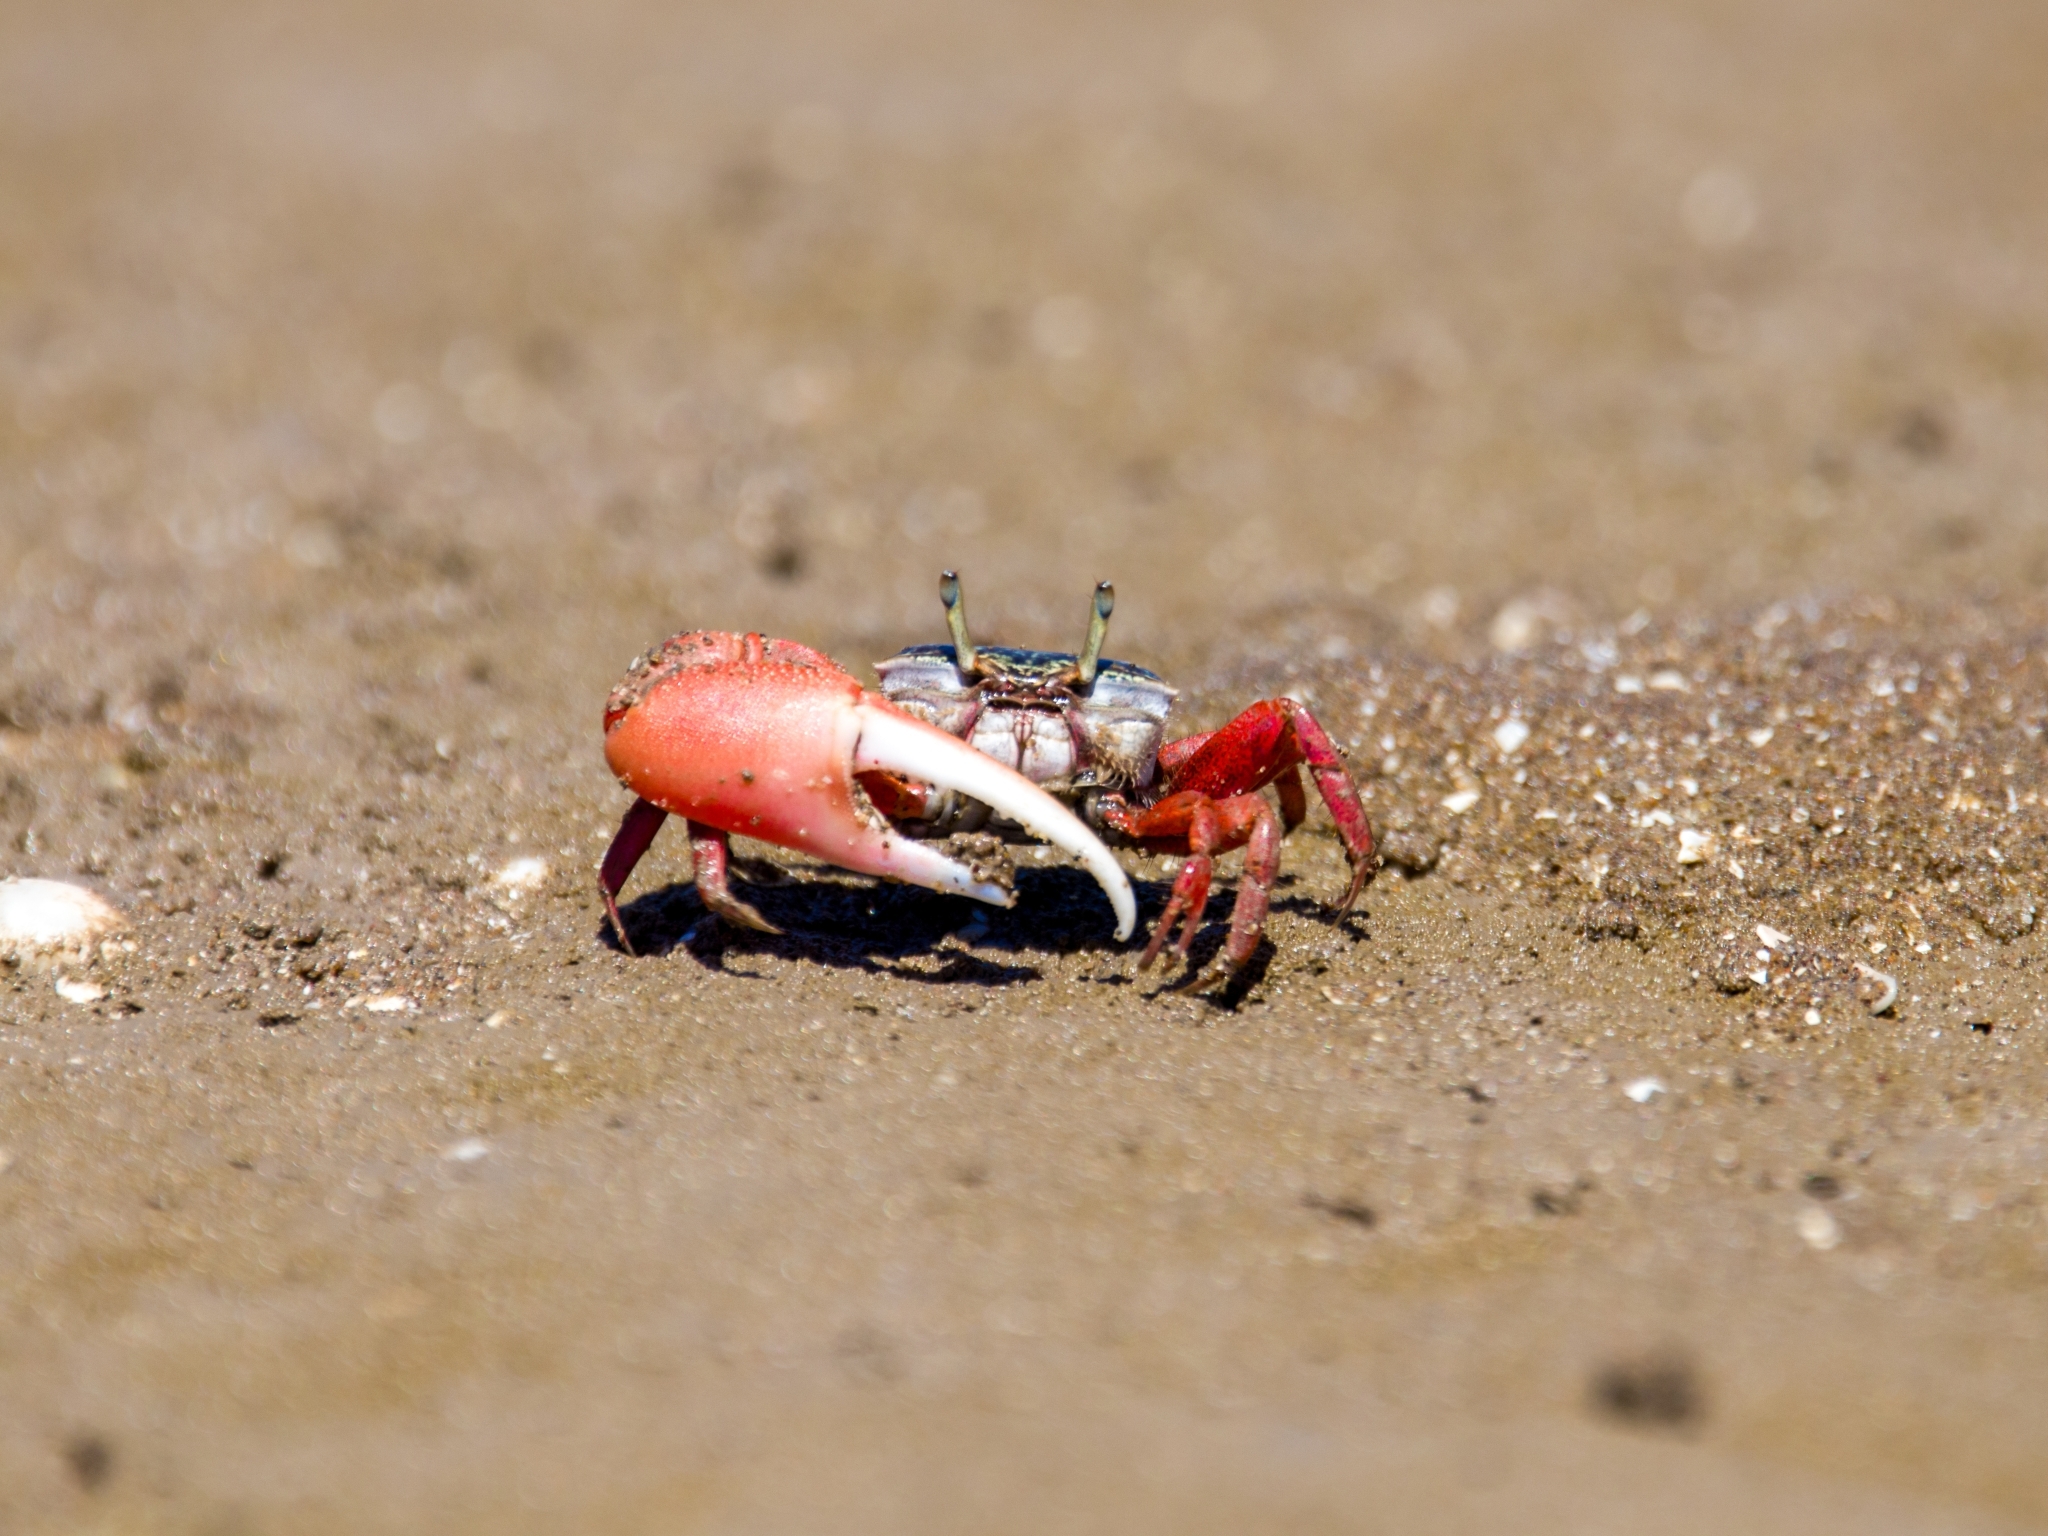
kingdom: Animalia
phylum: Arthropoda
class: Malacostraca
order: Decapoda
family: Ocypodidae
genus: Leptuca
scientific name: Leptuca uruguayensis
